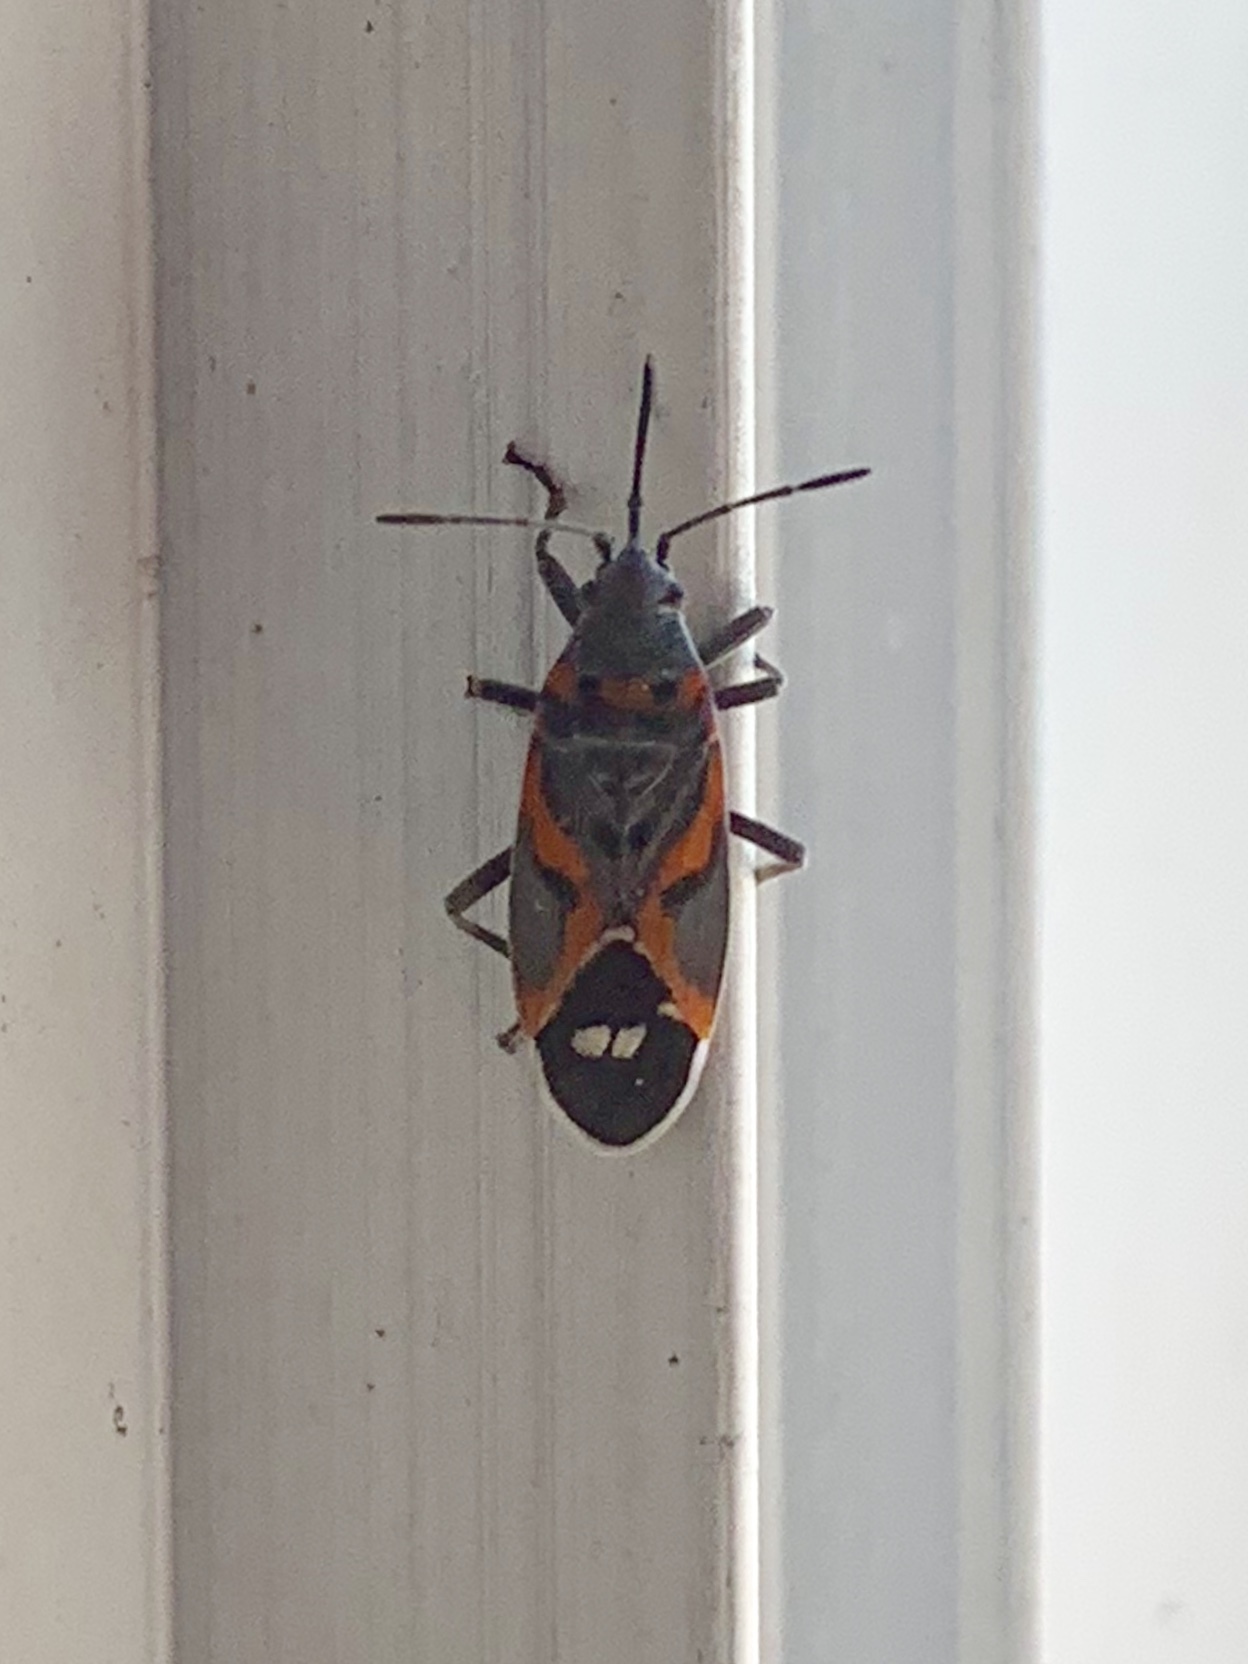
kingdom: Animalia
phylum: Arthropoda
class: Insecta
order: Hemiptera
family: Lygaeidae
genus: Lygaeus
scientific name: Lygaeus kalmii
